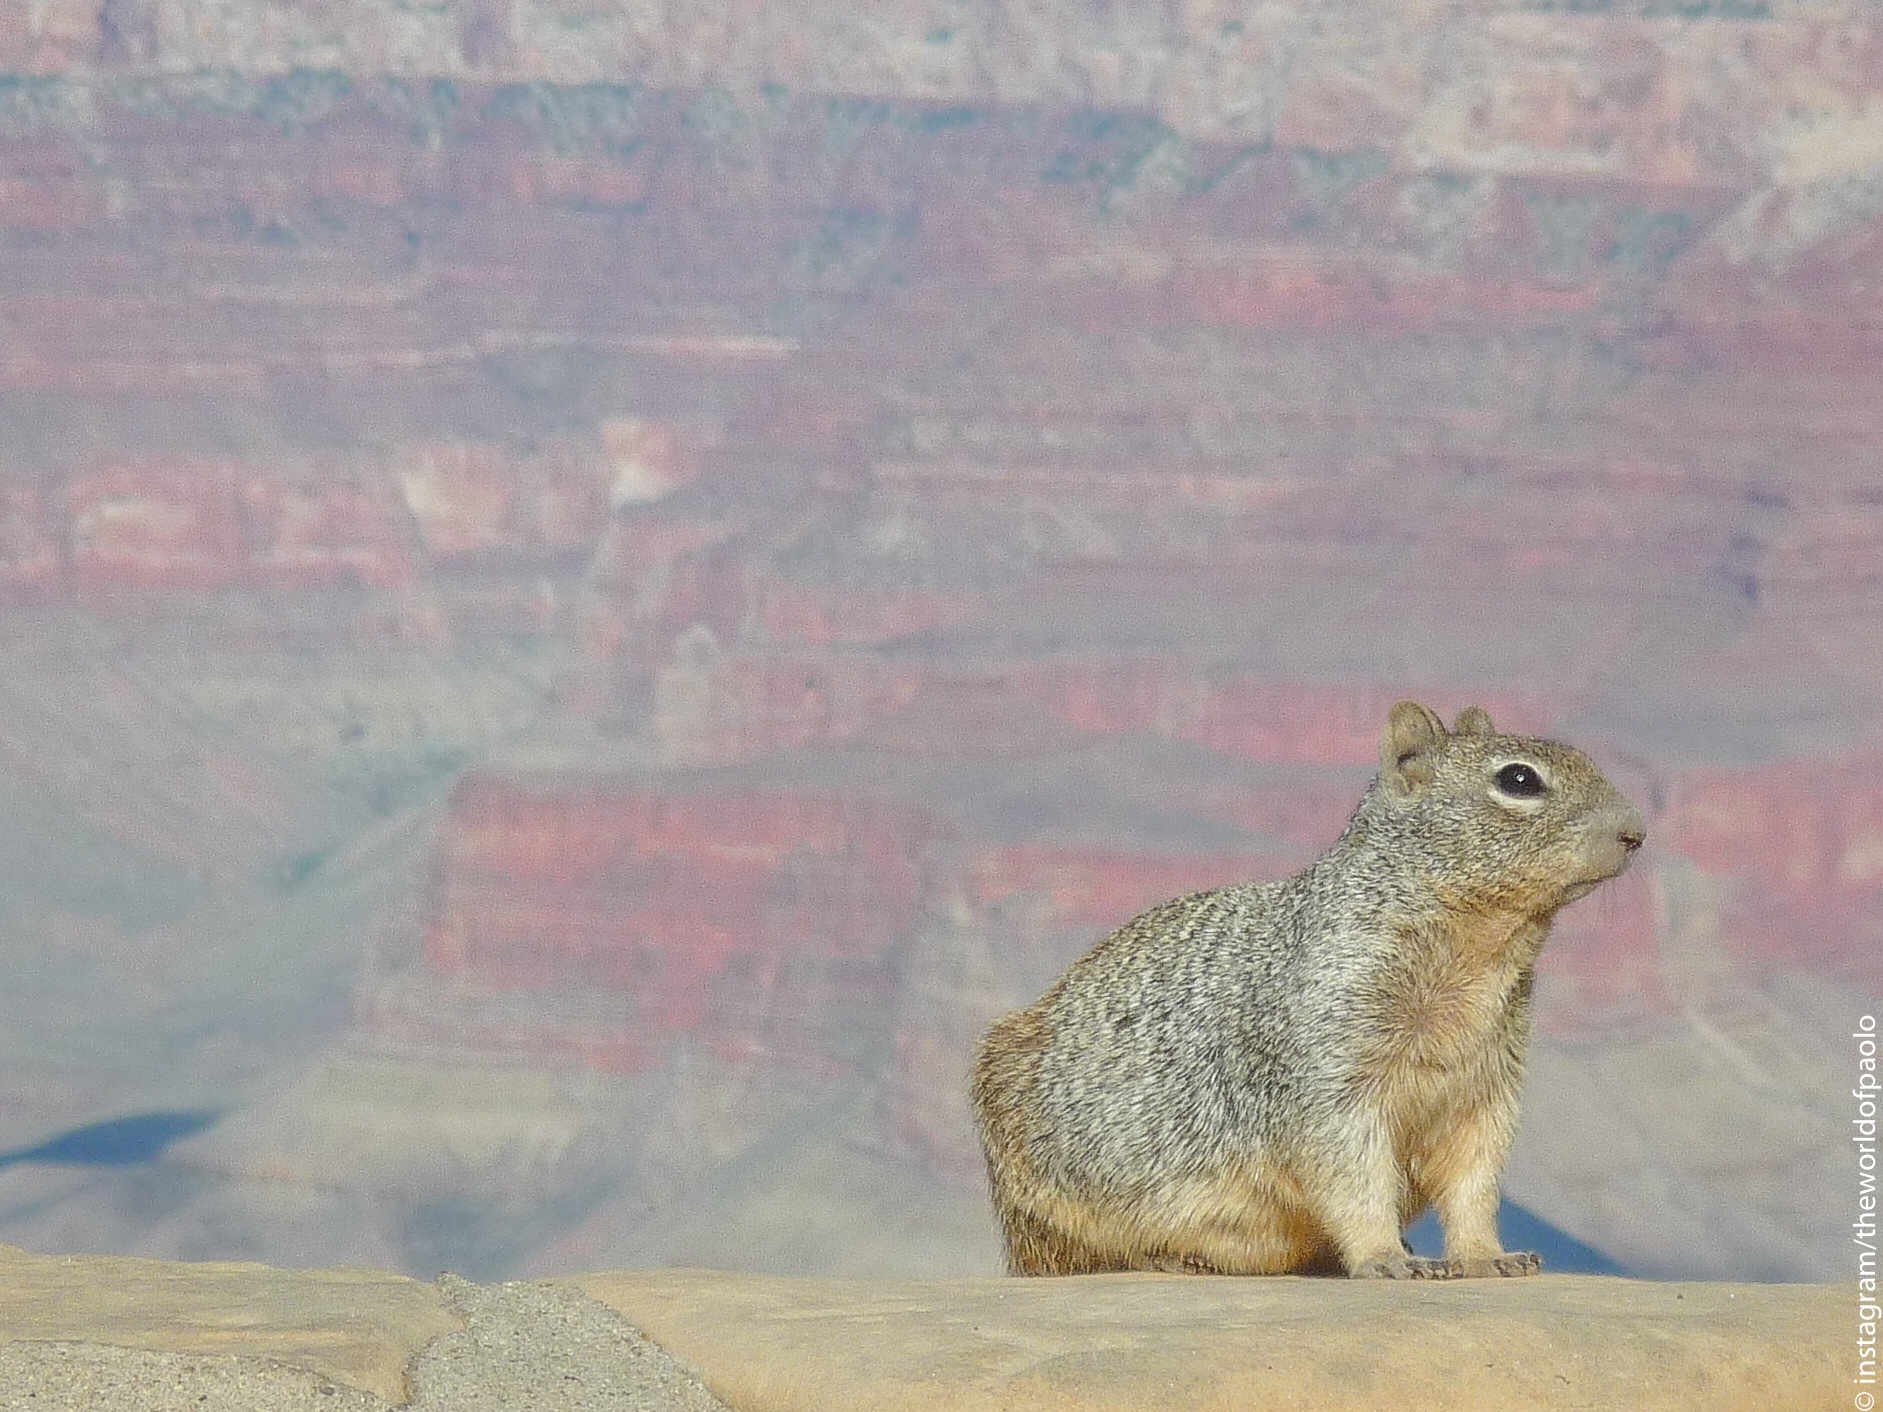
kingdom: Animalia
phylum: Chordata
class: Mammalia
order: Rodentia
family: Sciuridae
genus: Otospermophilus
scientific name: Otospermophilus variegatus
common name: Rock squirrel
